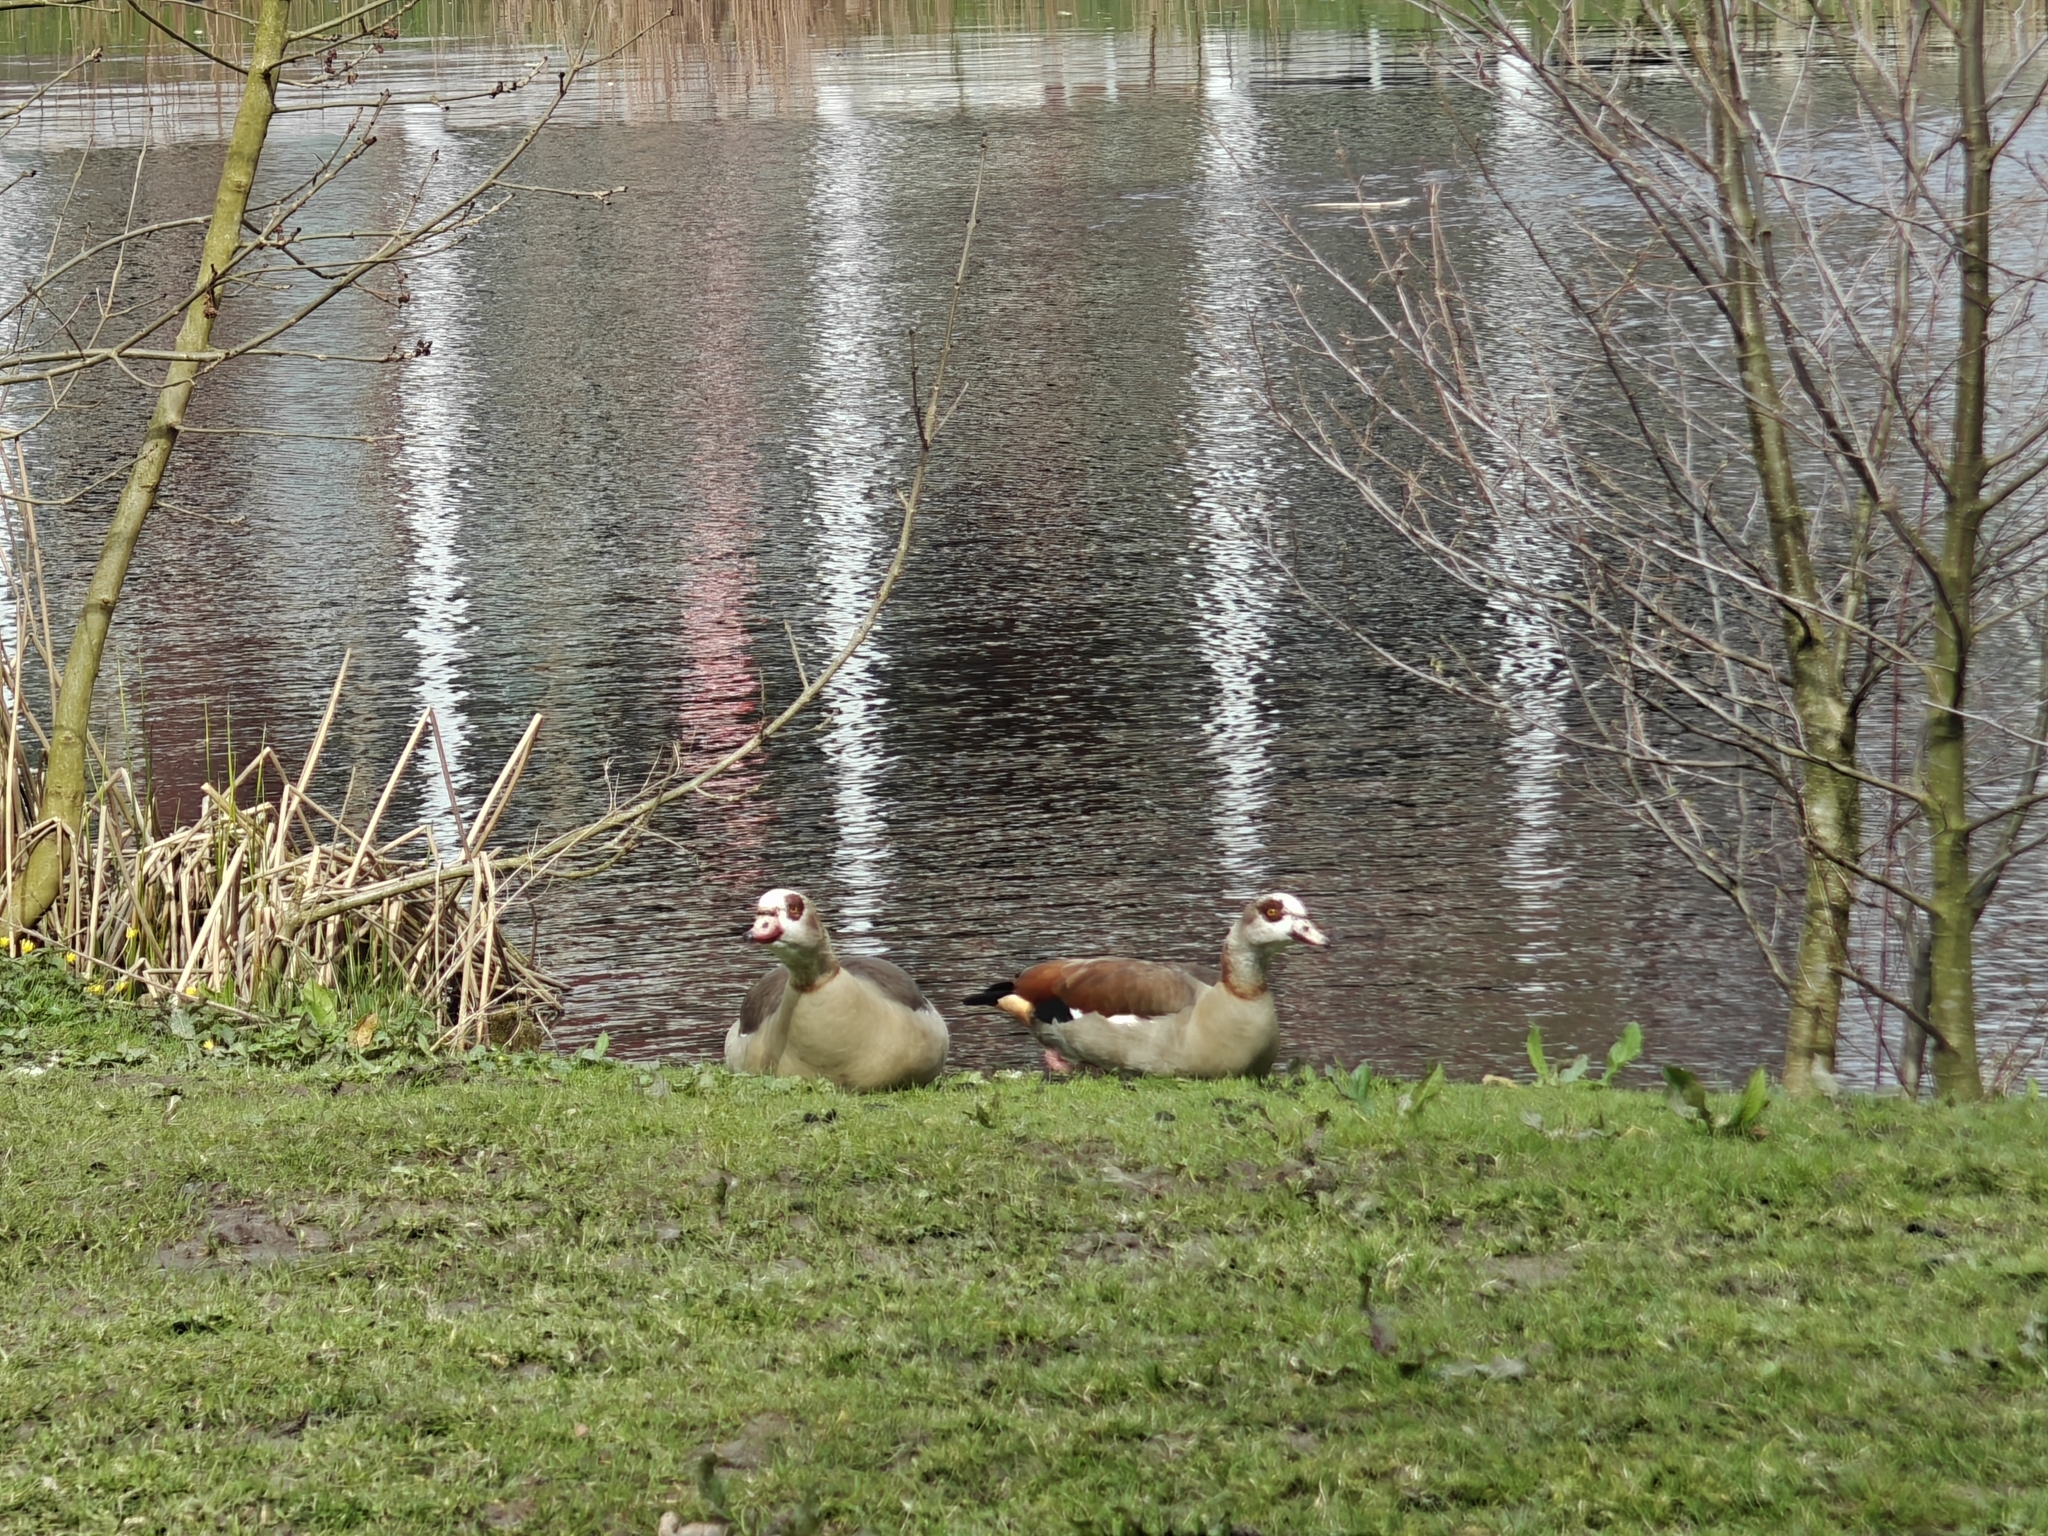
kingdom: Animalia
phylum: Chordata
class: Aves
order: Anseriformes
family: Anatidae
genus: Alopochen
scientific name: Alopochen aegyptiaca
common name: Egyptian goose
